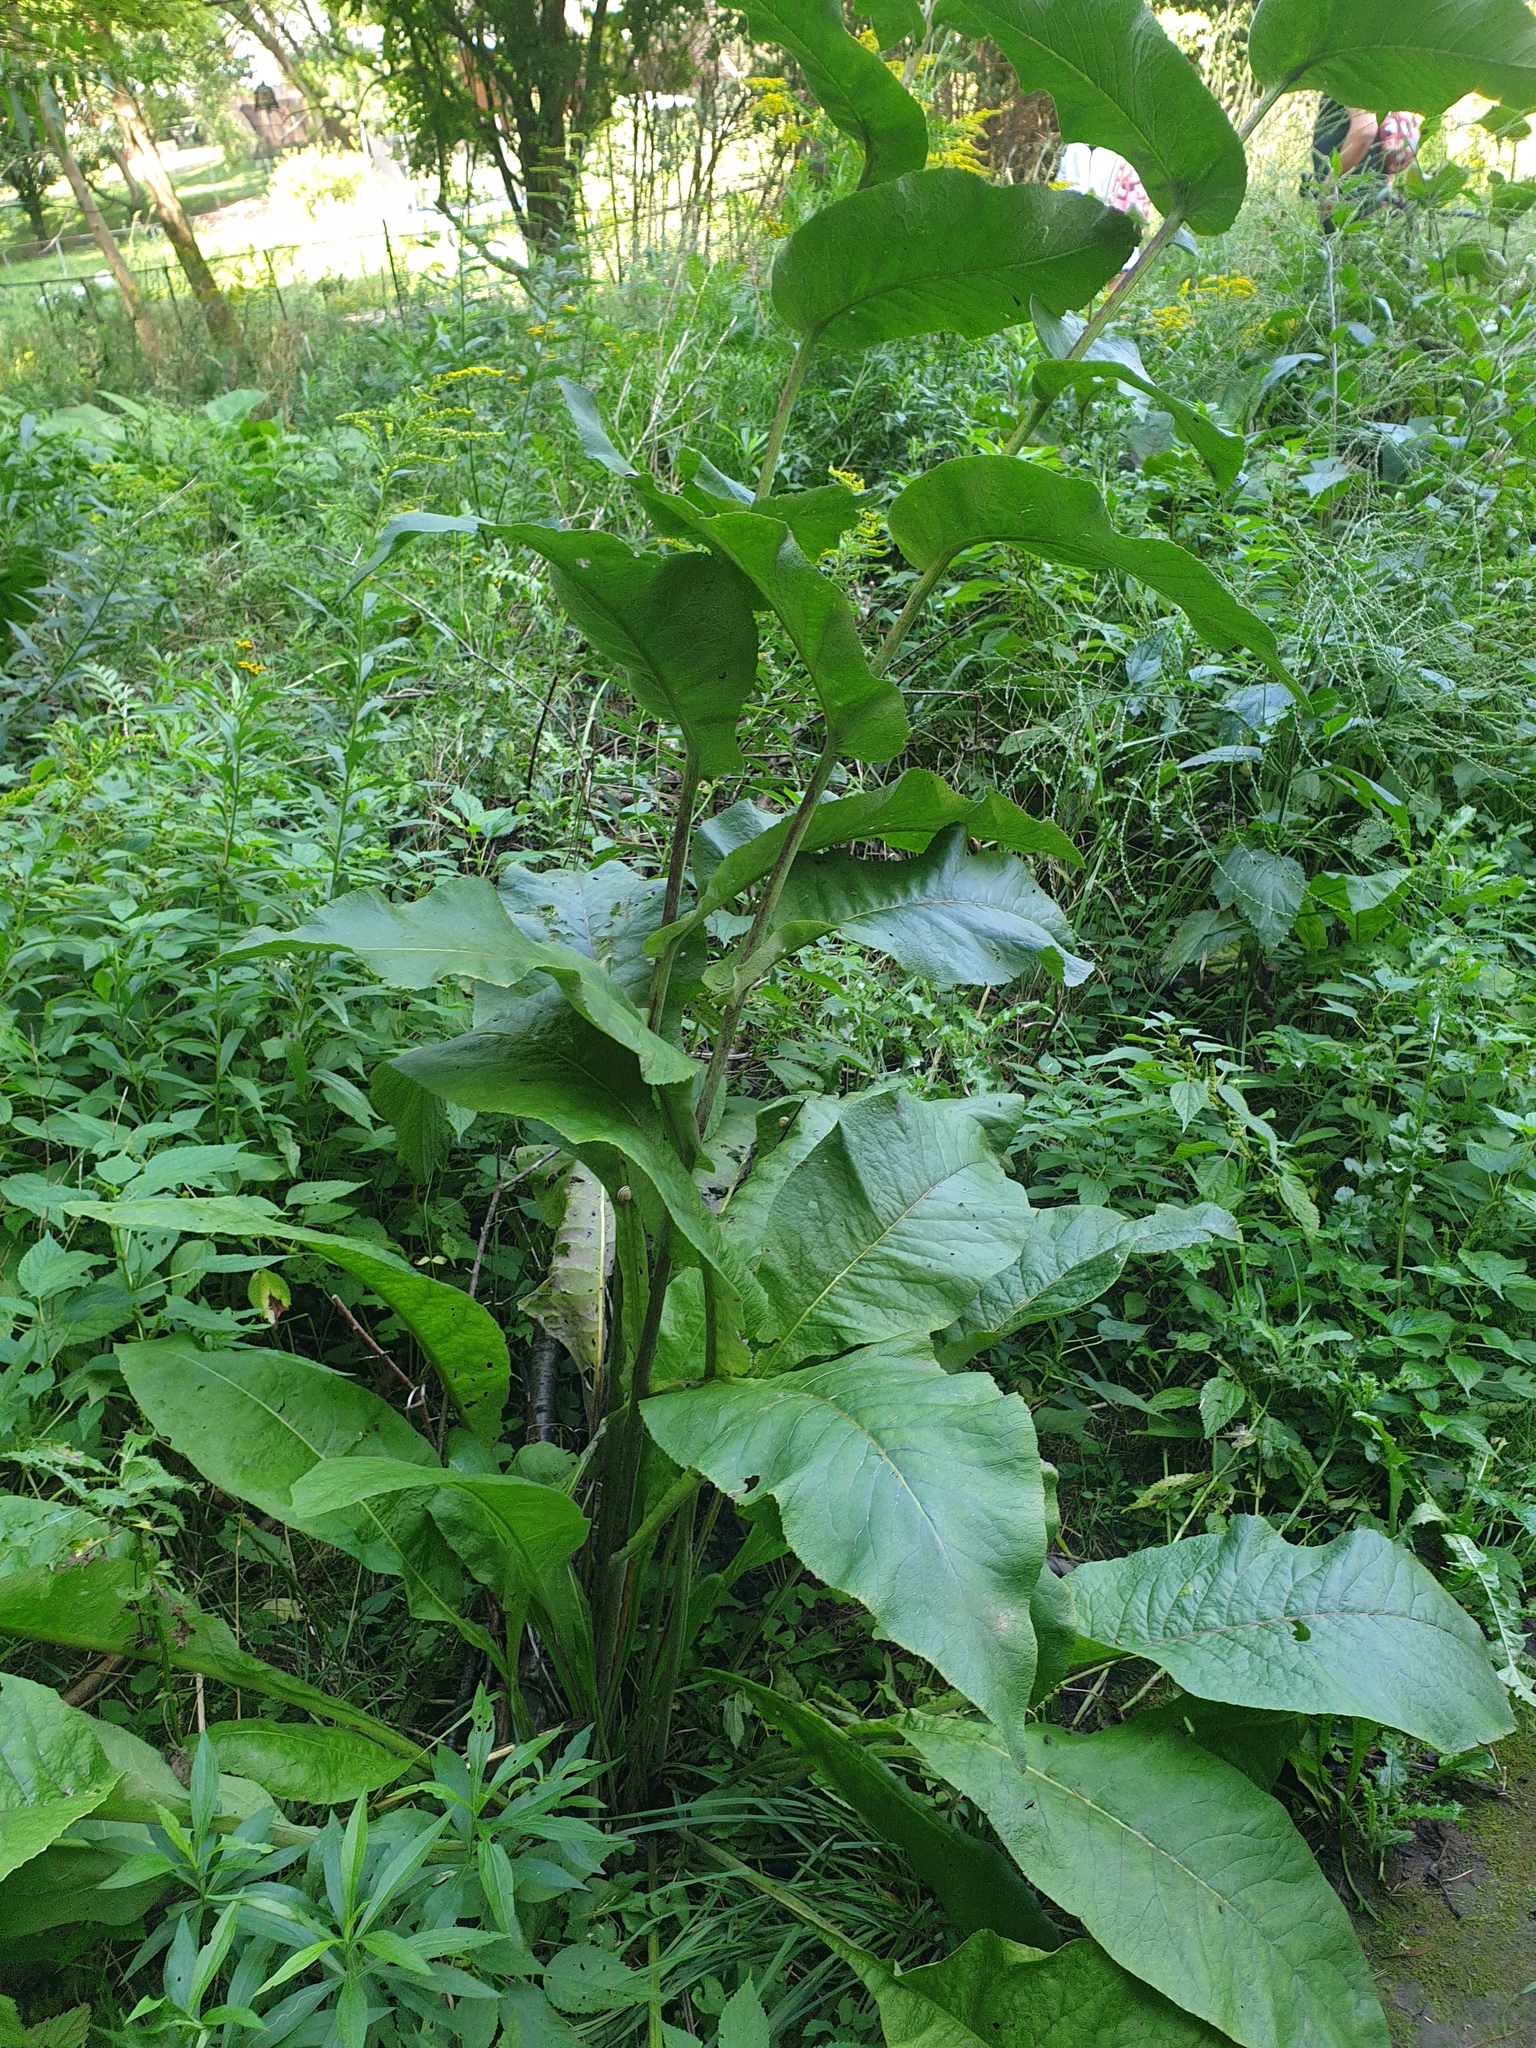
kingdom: Plantae
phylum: Tracheophyta
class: Magnoliopsida
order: Asterales
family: Asteraceae
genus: Inula
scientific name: Inula helenium
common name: Elecampane
